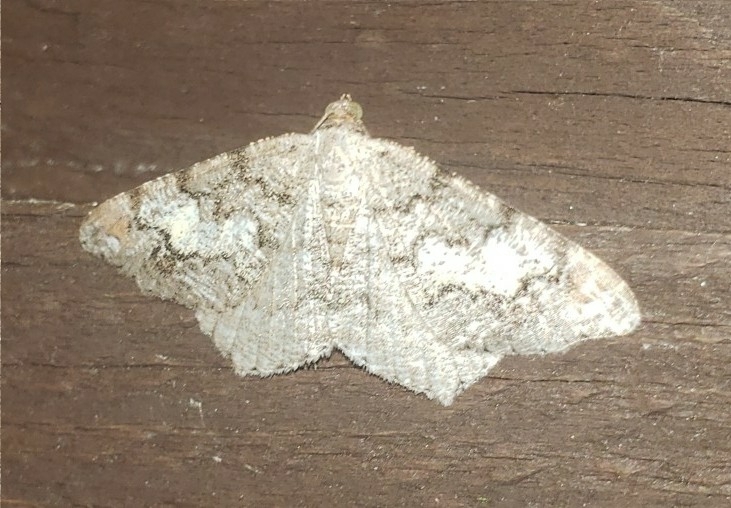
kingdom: Animalia
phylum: Arthropoda
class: Insecta
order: Lepidoptera
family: Geometridae
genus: Macaria
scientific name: Macaria granitata
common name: Granite moth
